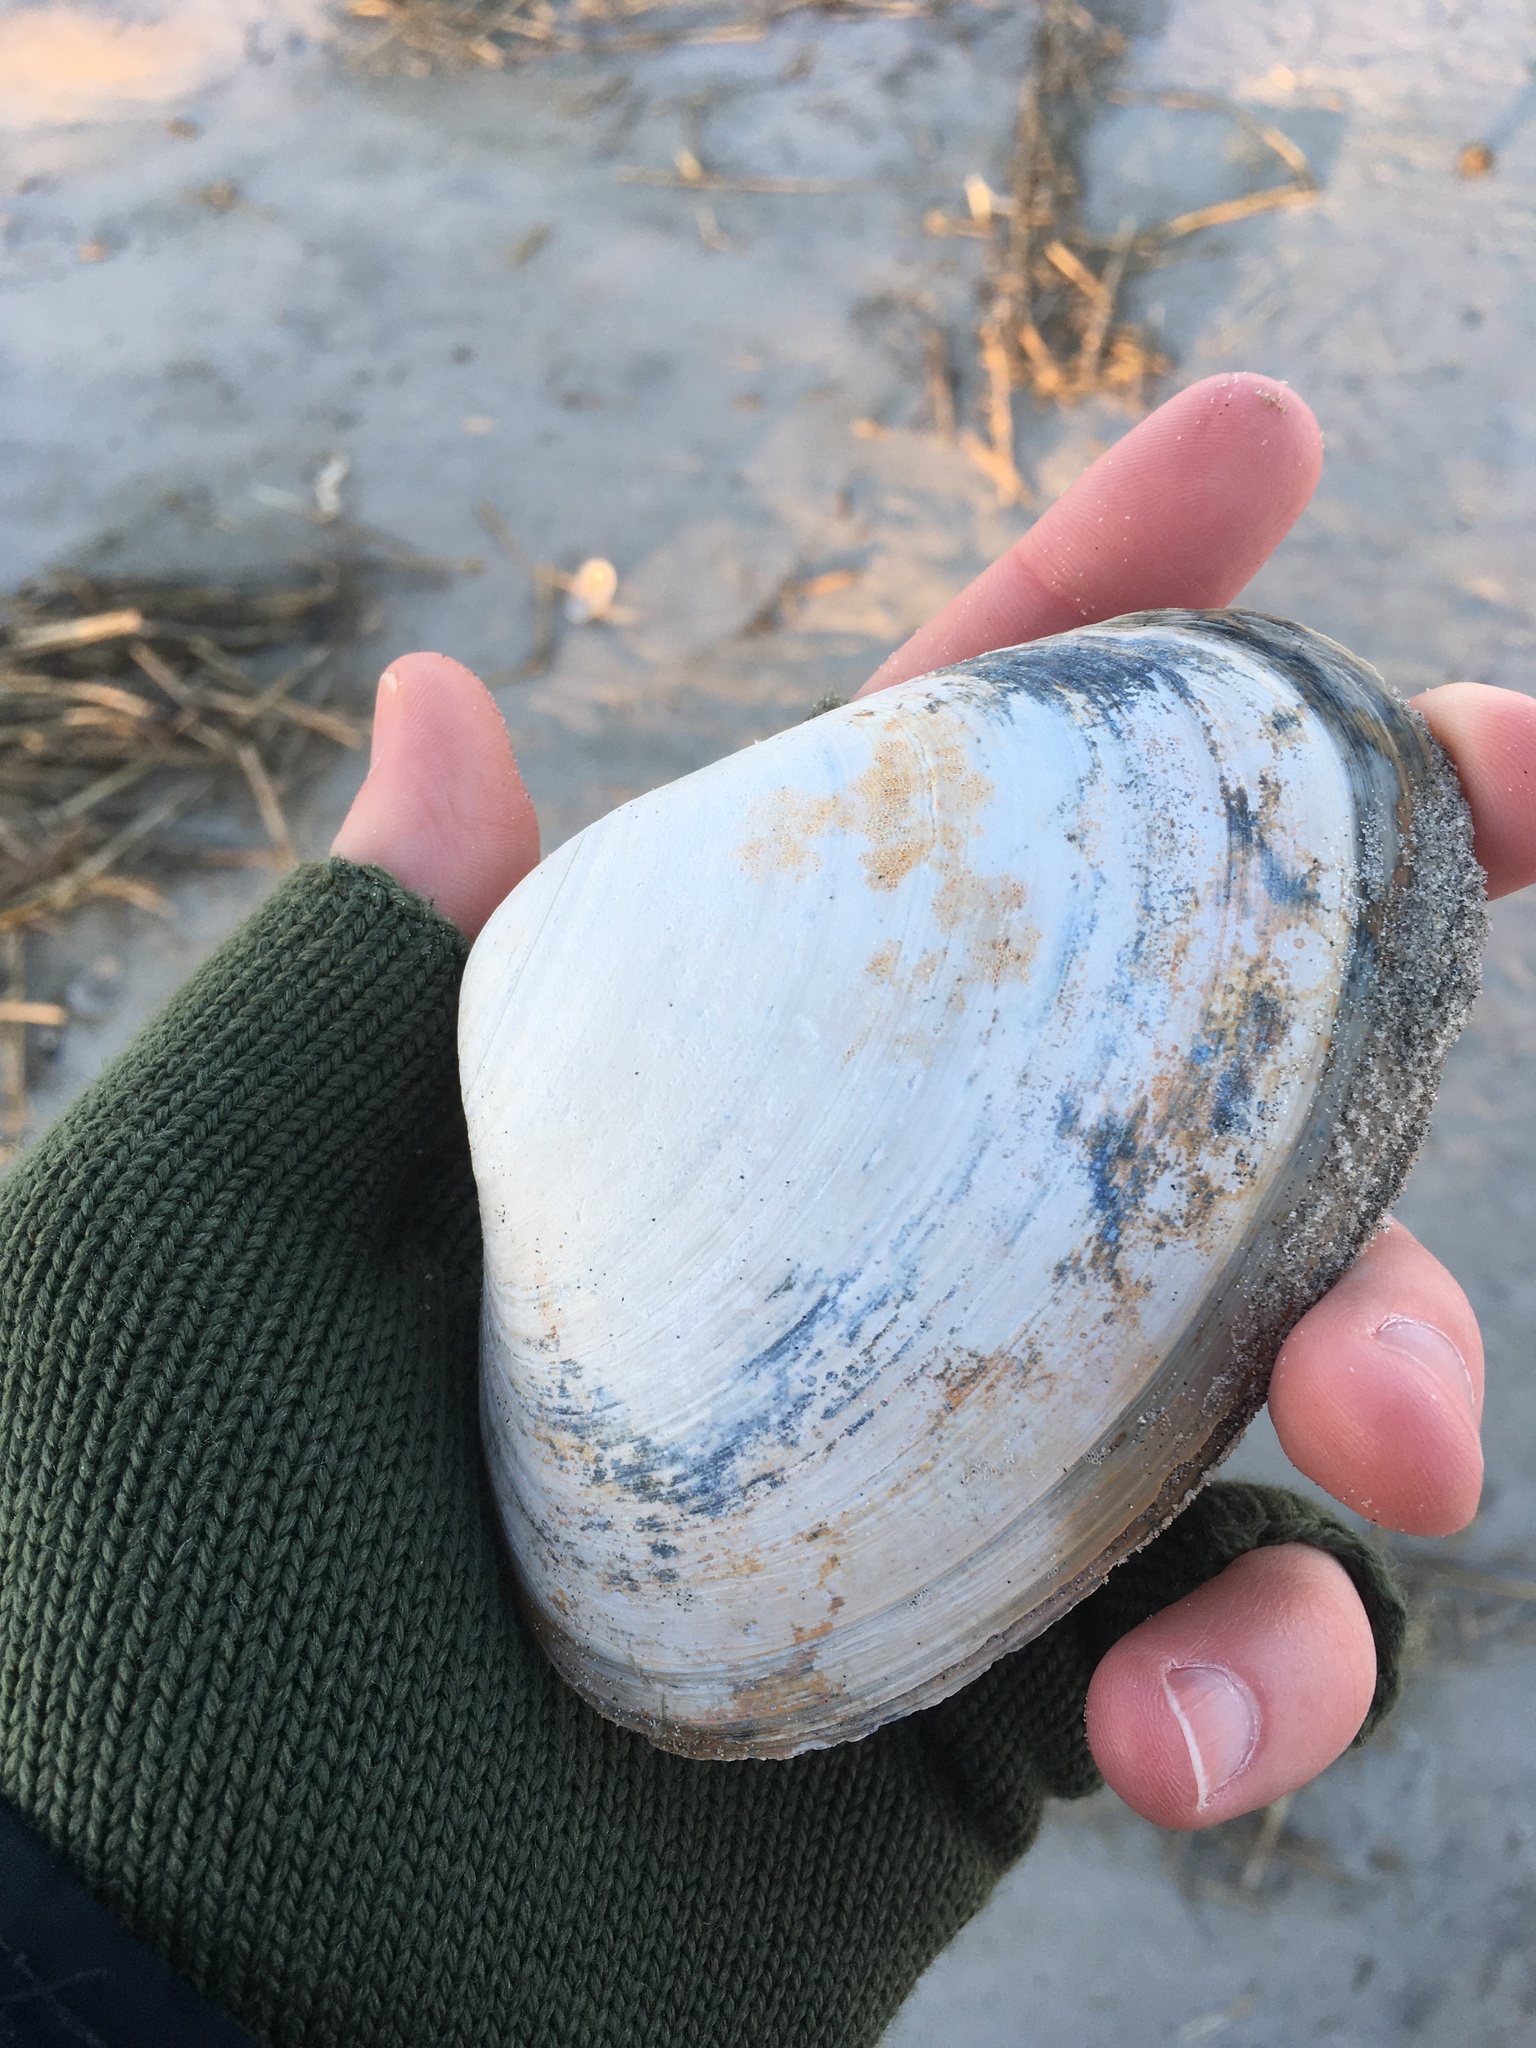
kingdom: Animalia
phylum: Mollusca
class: Bivalvia
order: Venerida
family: Mactridae
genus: Spisula
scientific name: Spisula solidissima
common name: Atlantic surf clam
